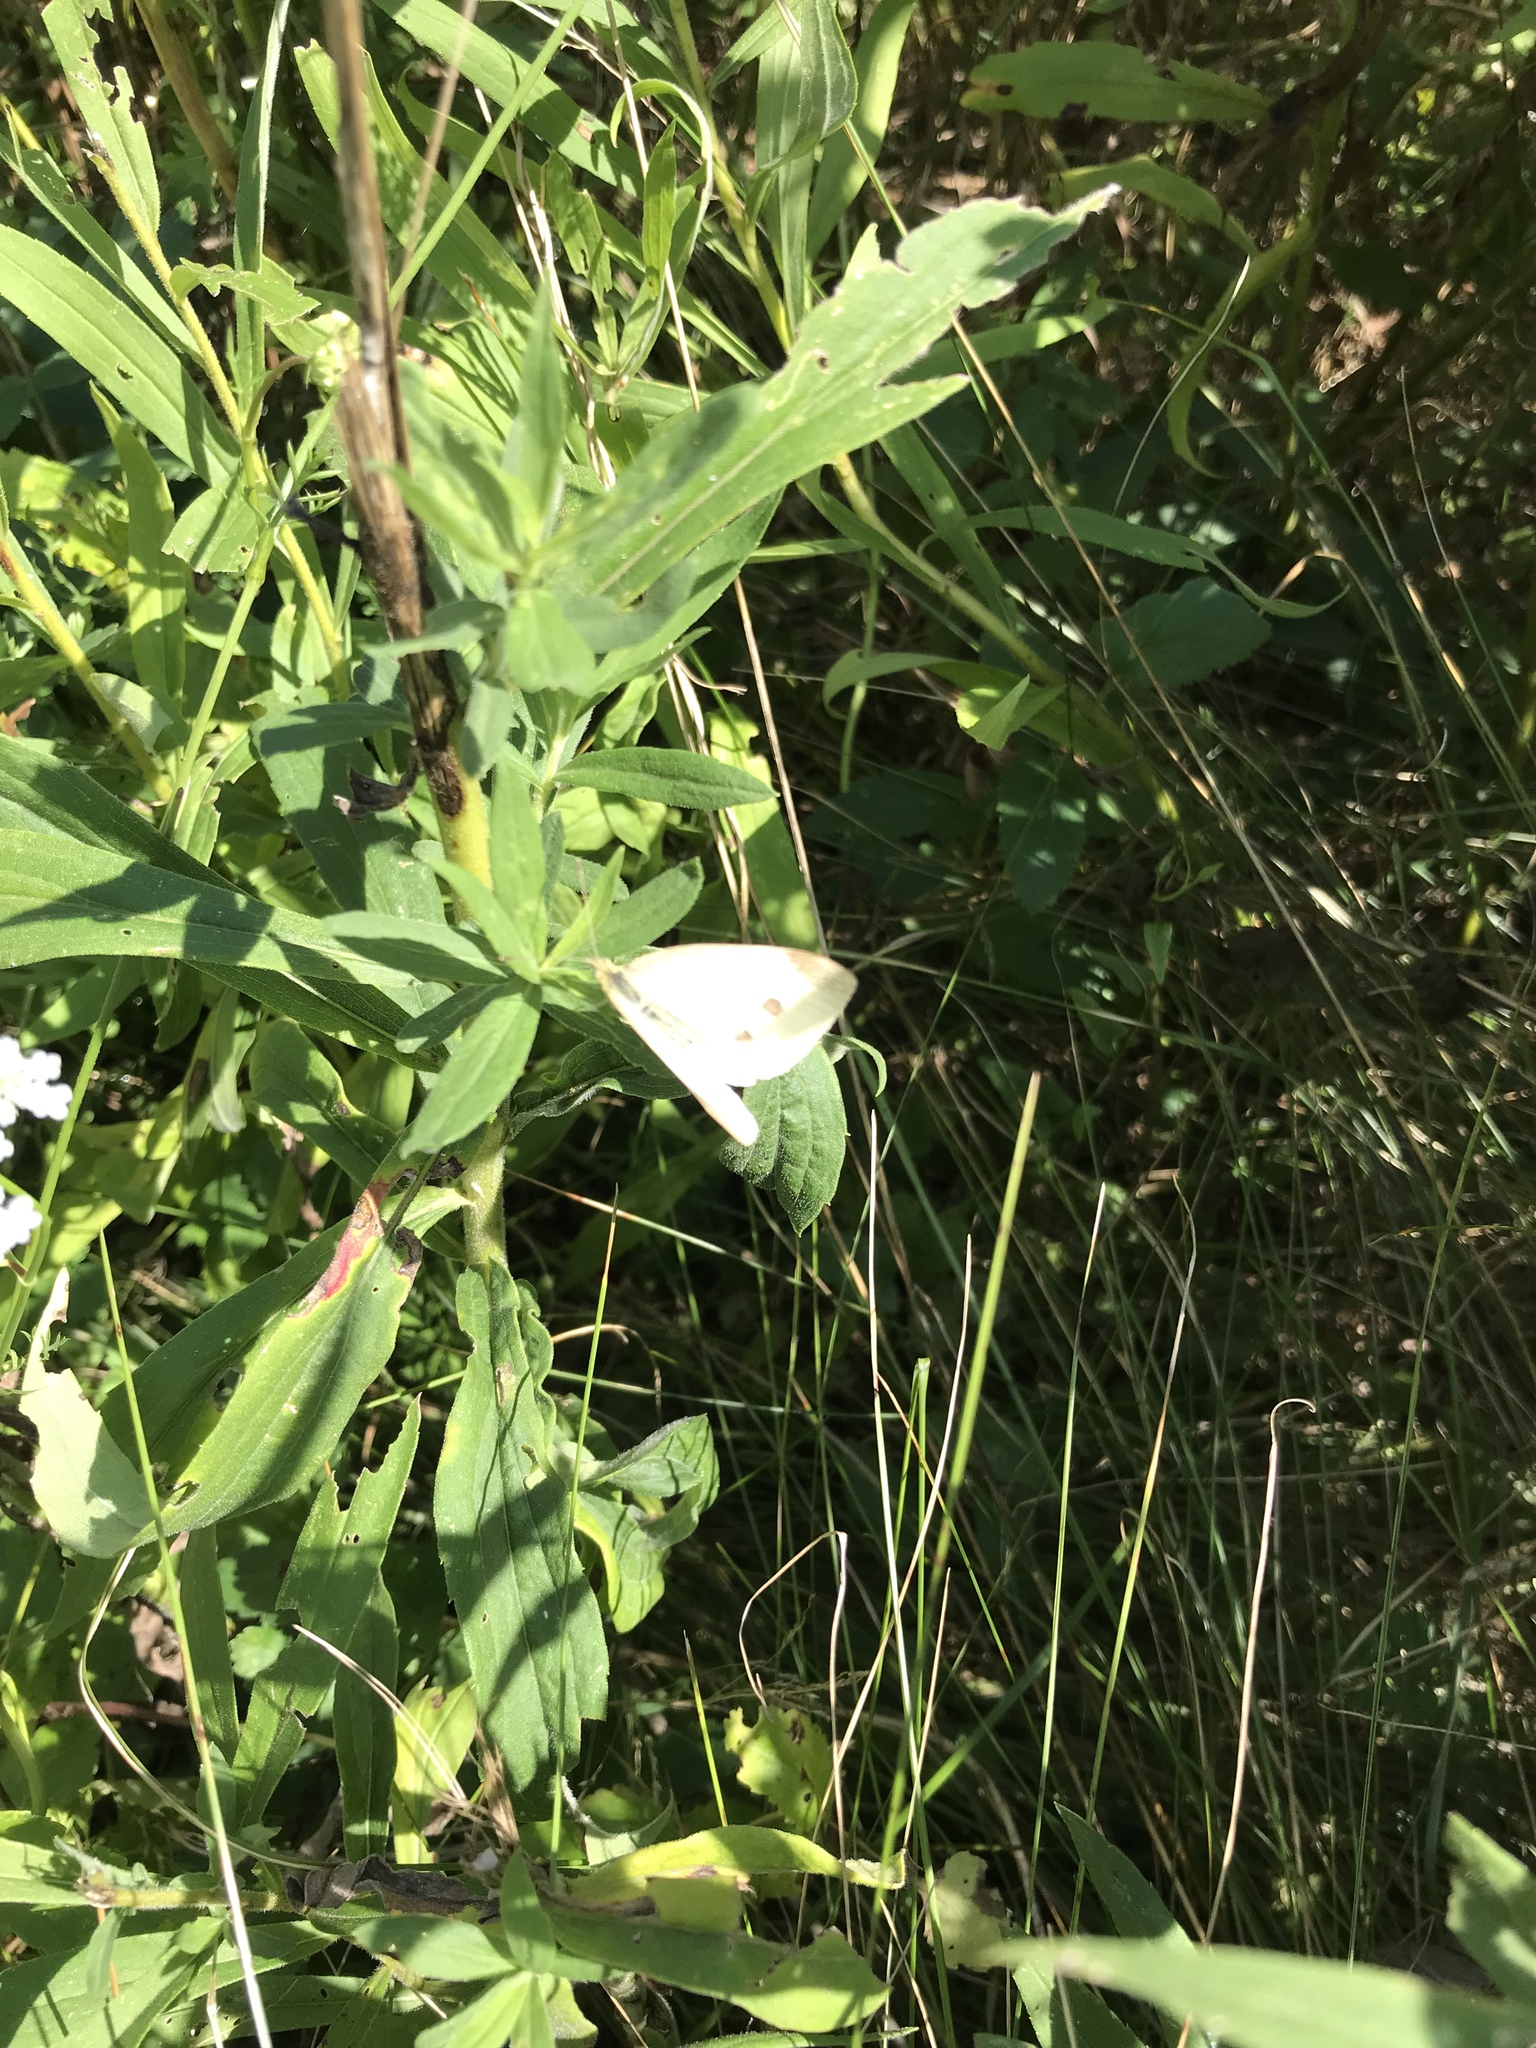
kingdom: Animalia
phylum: Arthropoda
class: Insecta
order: Lepidoptera
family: Pieridae
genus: Pieris
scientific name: Pieris rapae
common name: Small white
